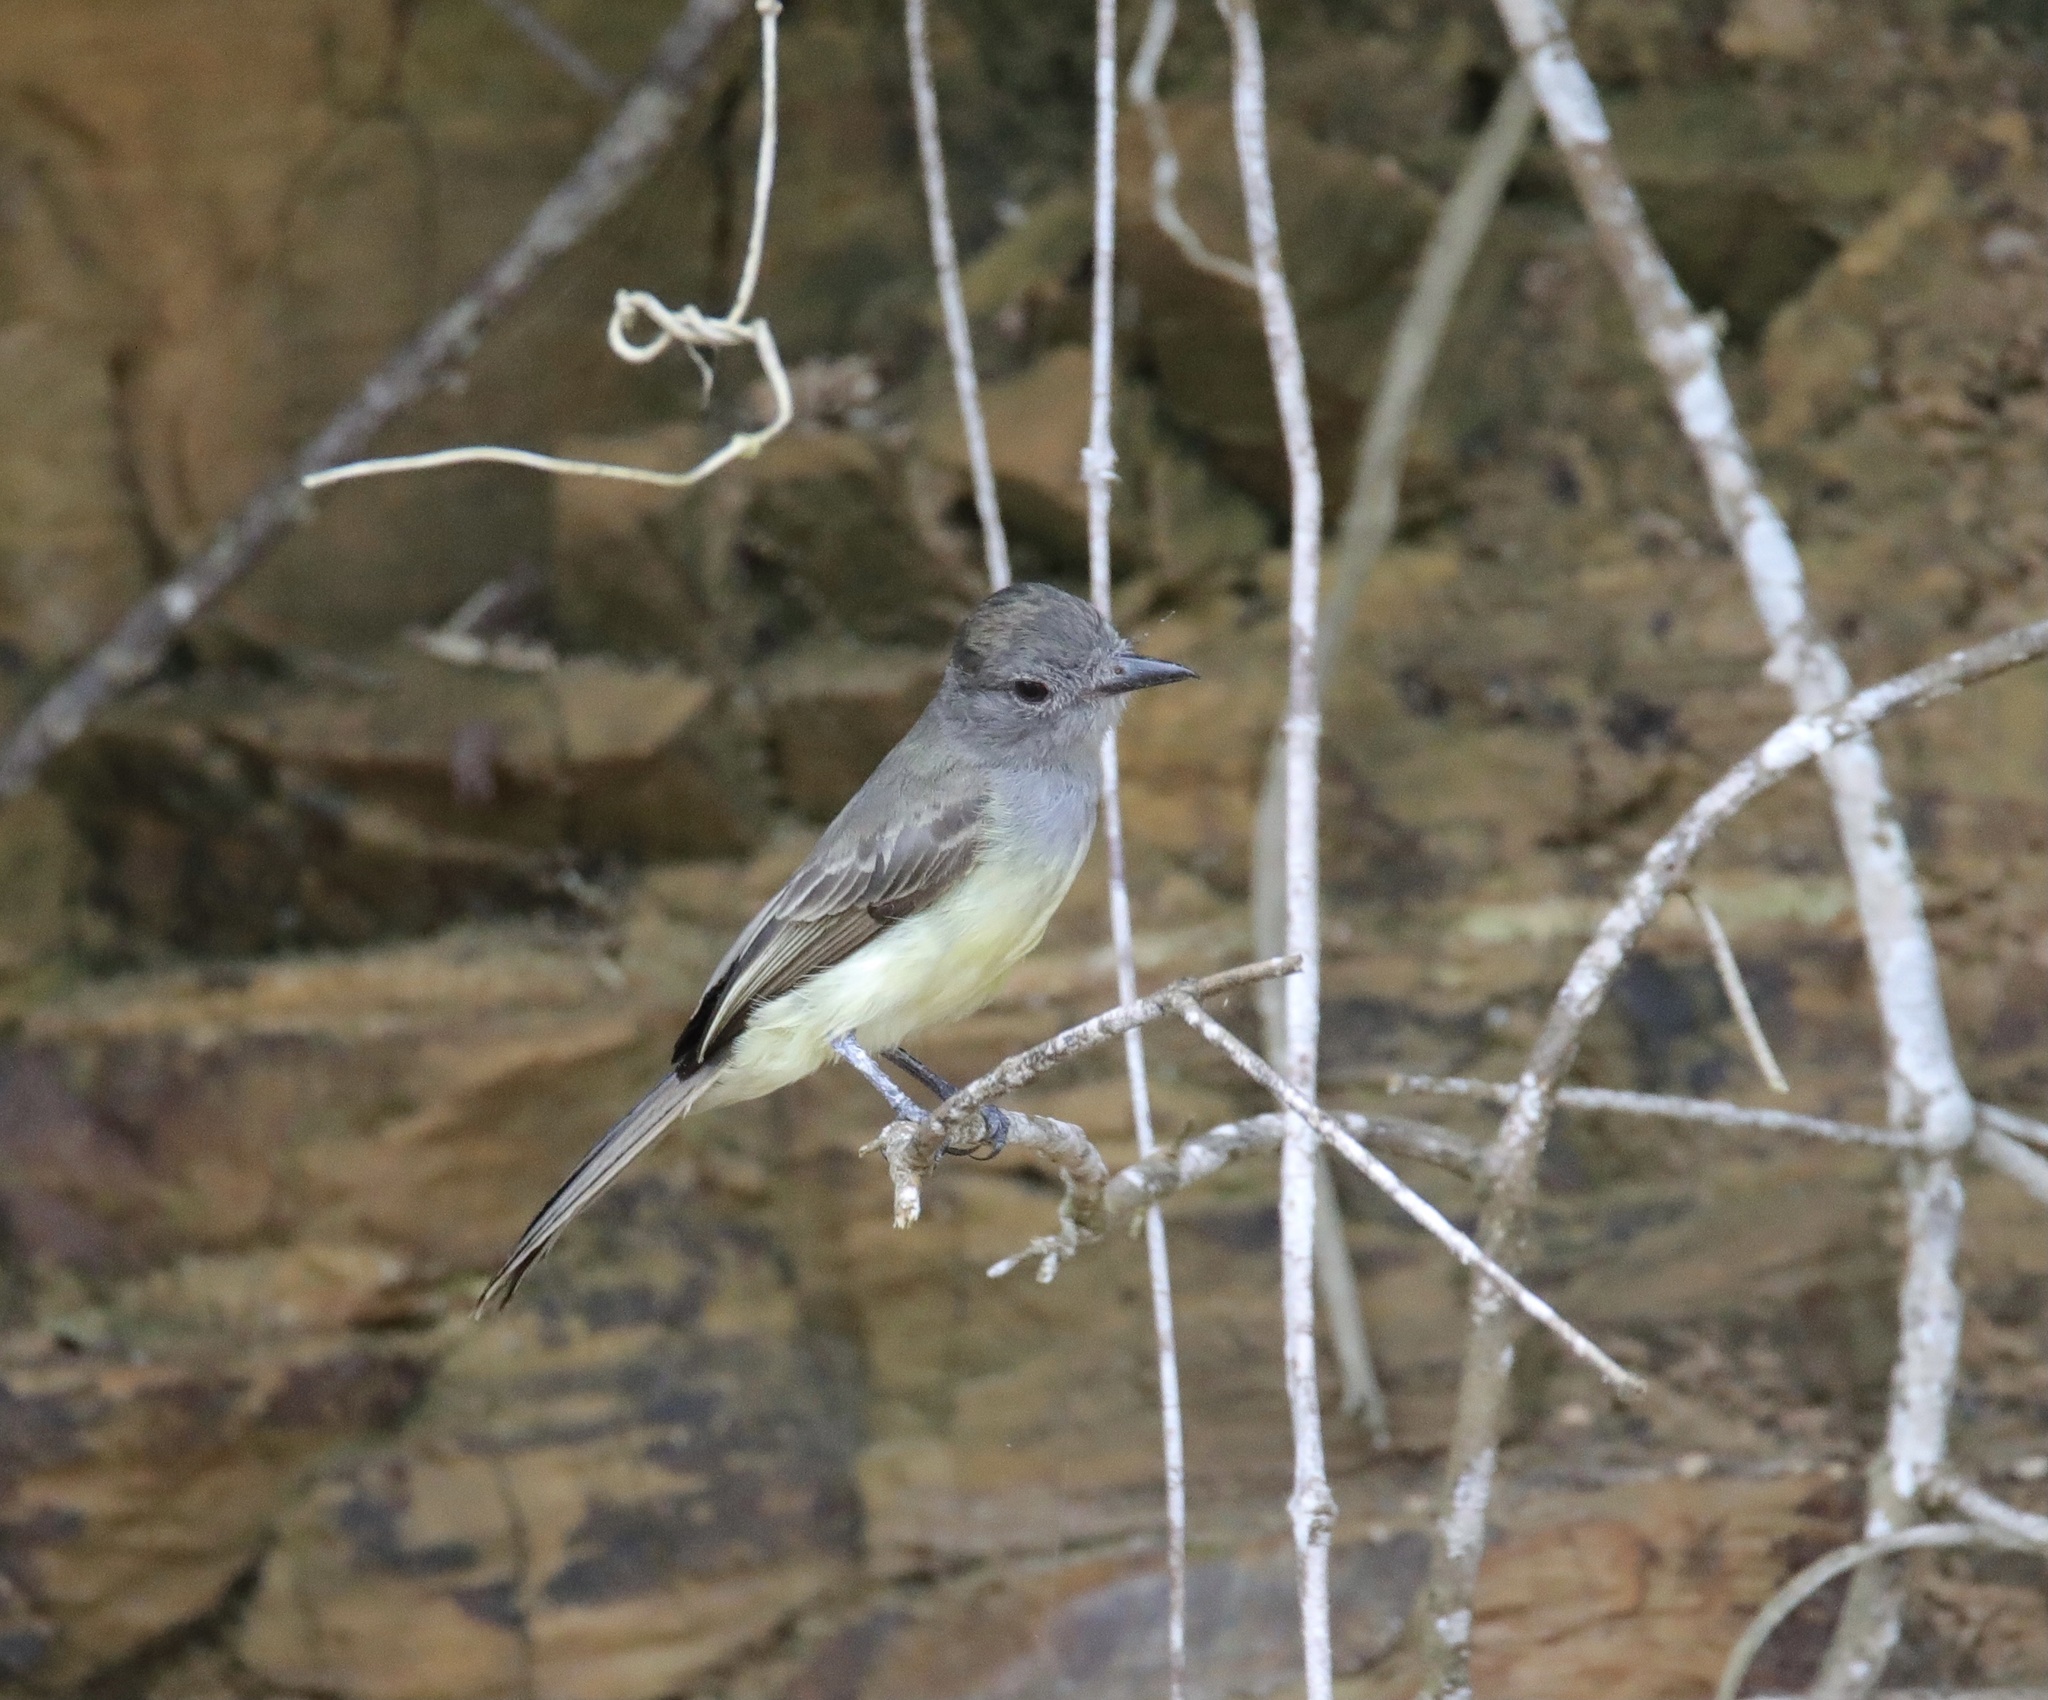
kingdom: Animalia
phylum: Chordata
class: Aves
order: Passeriformes
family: Tyrannidae
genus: Myiarchus
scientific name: Myiarchus panamensis
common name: Panama flycatcher
